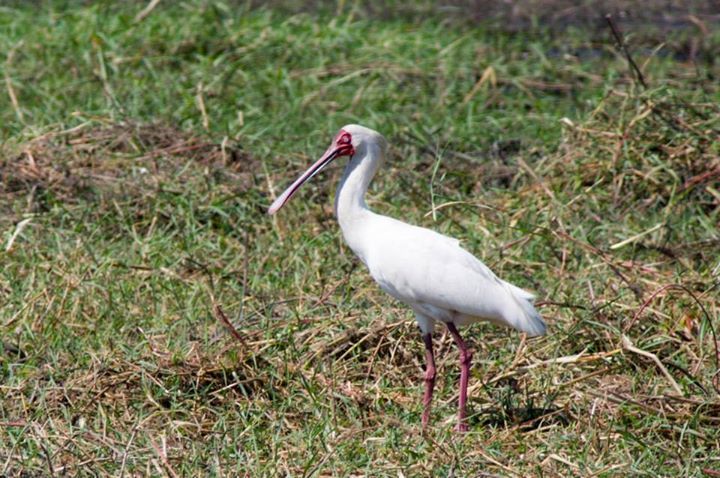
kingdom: Animalia
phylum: Chordata
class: Aves
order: Pelecaniformes
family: Threskiornithidae
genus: Platalea
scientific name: Platalea alba
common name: African spoonbill
